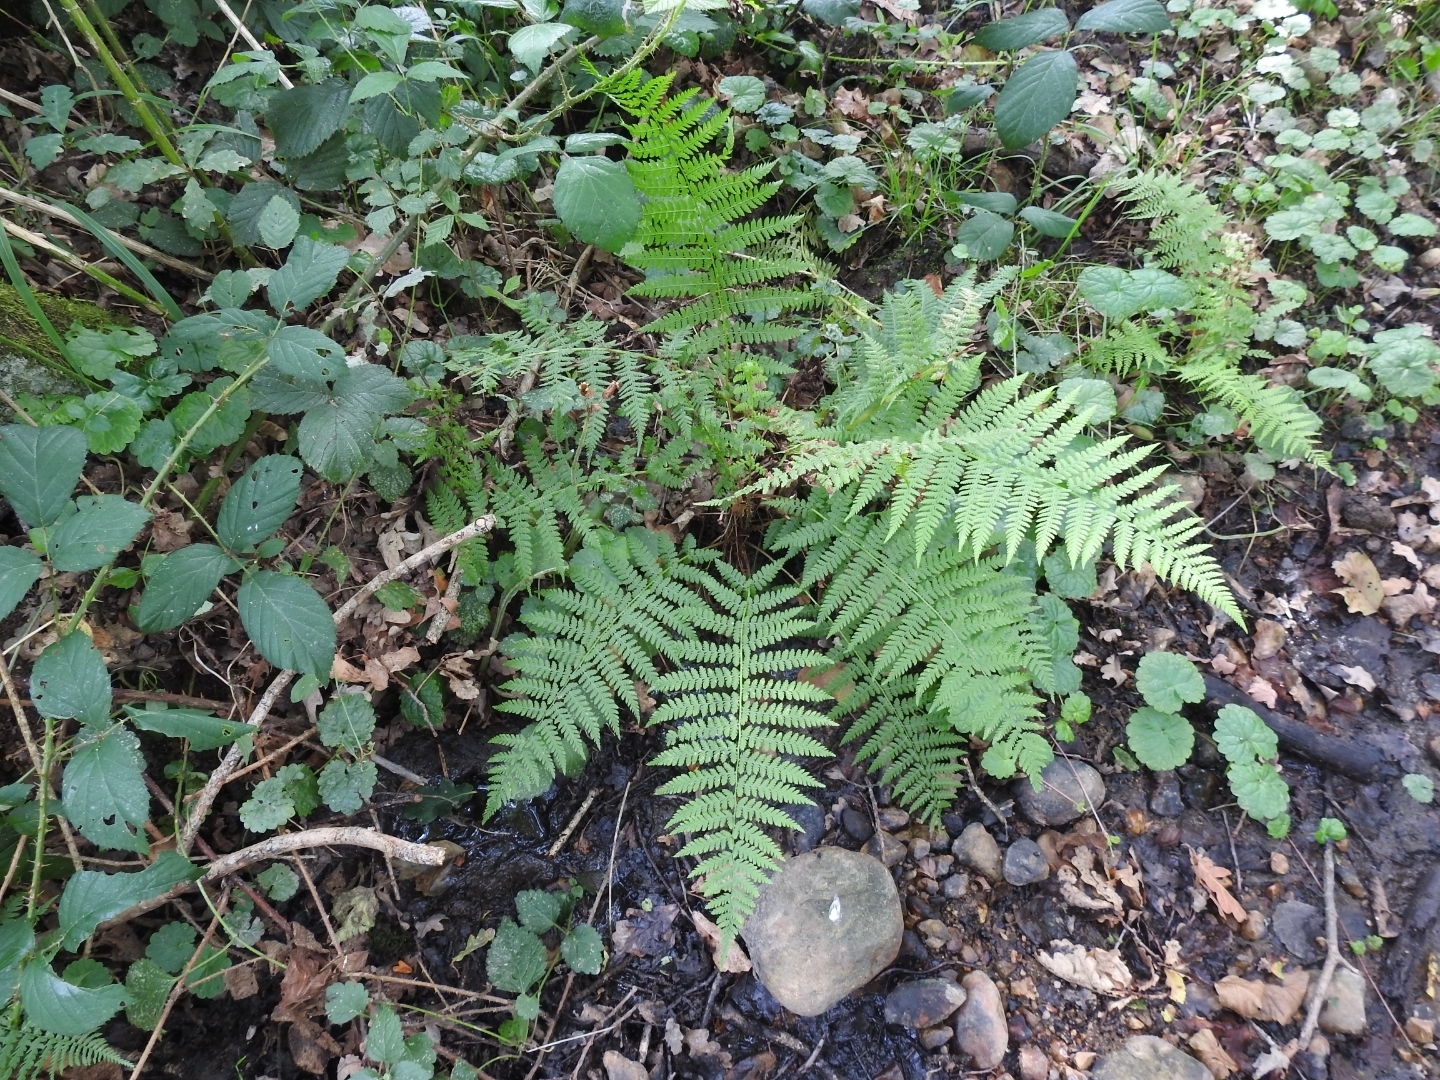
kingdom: Plantae
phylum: Tracheophyta
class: Polypodiopsida
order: Polypodiales
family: Athyriaceae
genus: Athyrium
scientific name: Athyrium filix-femina
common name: Lady fern
